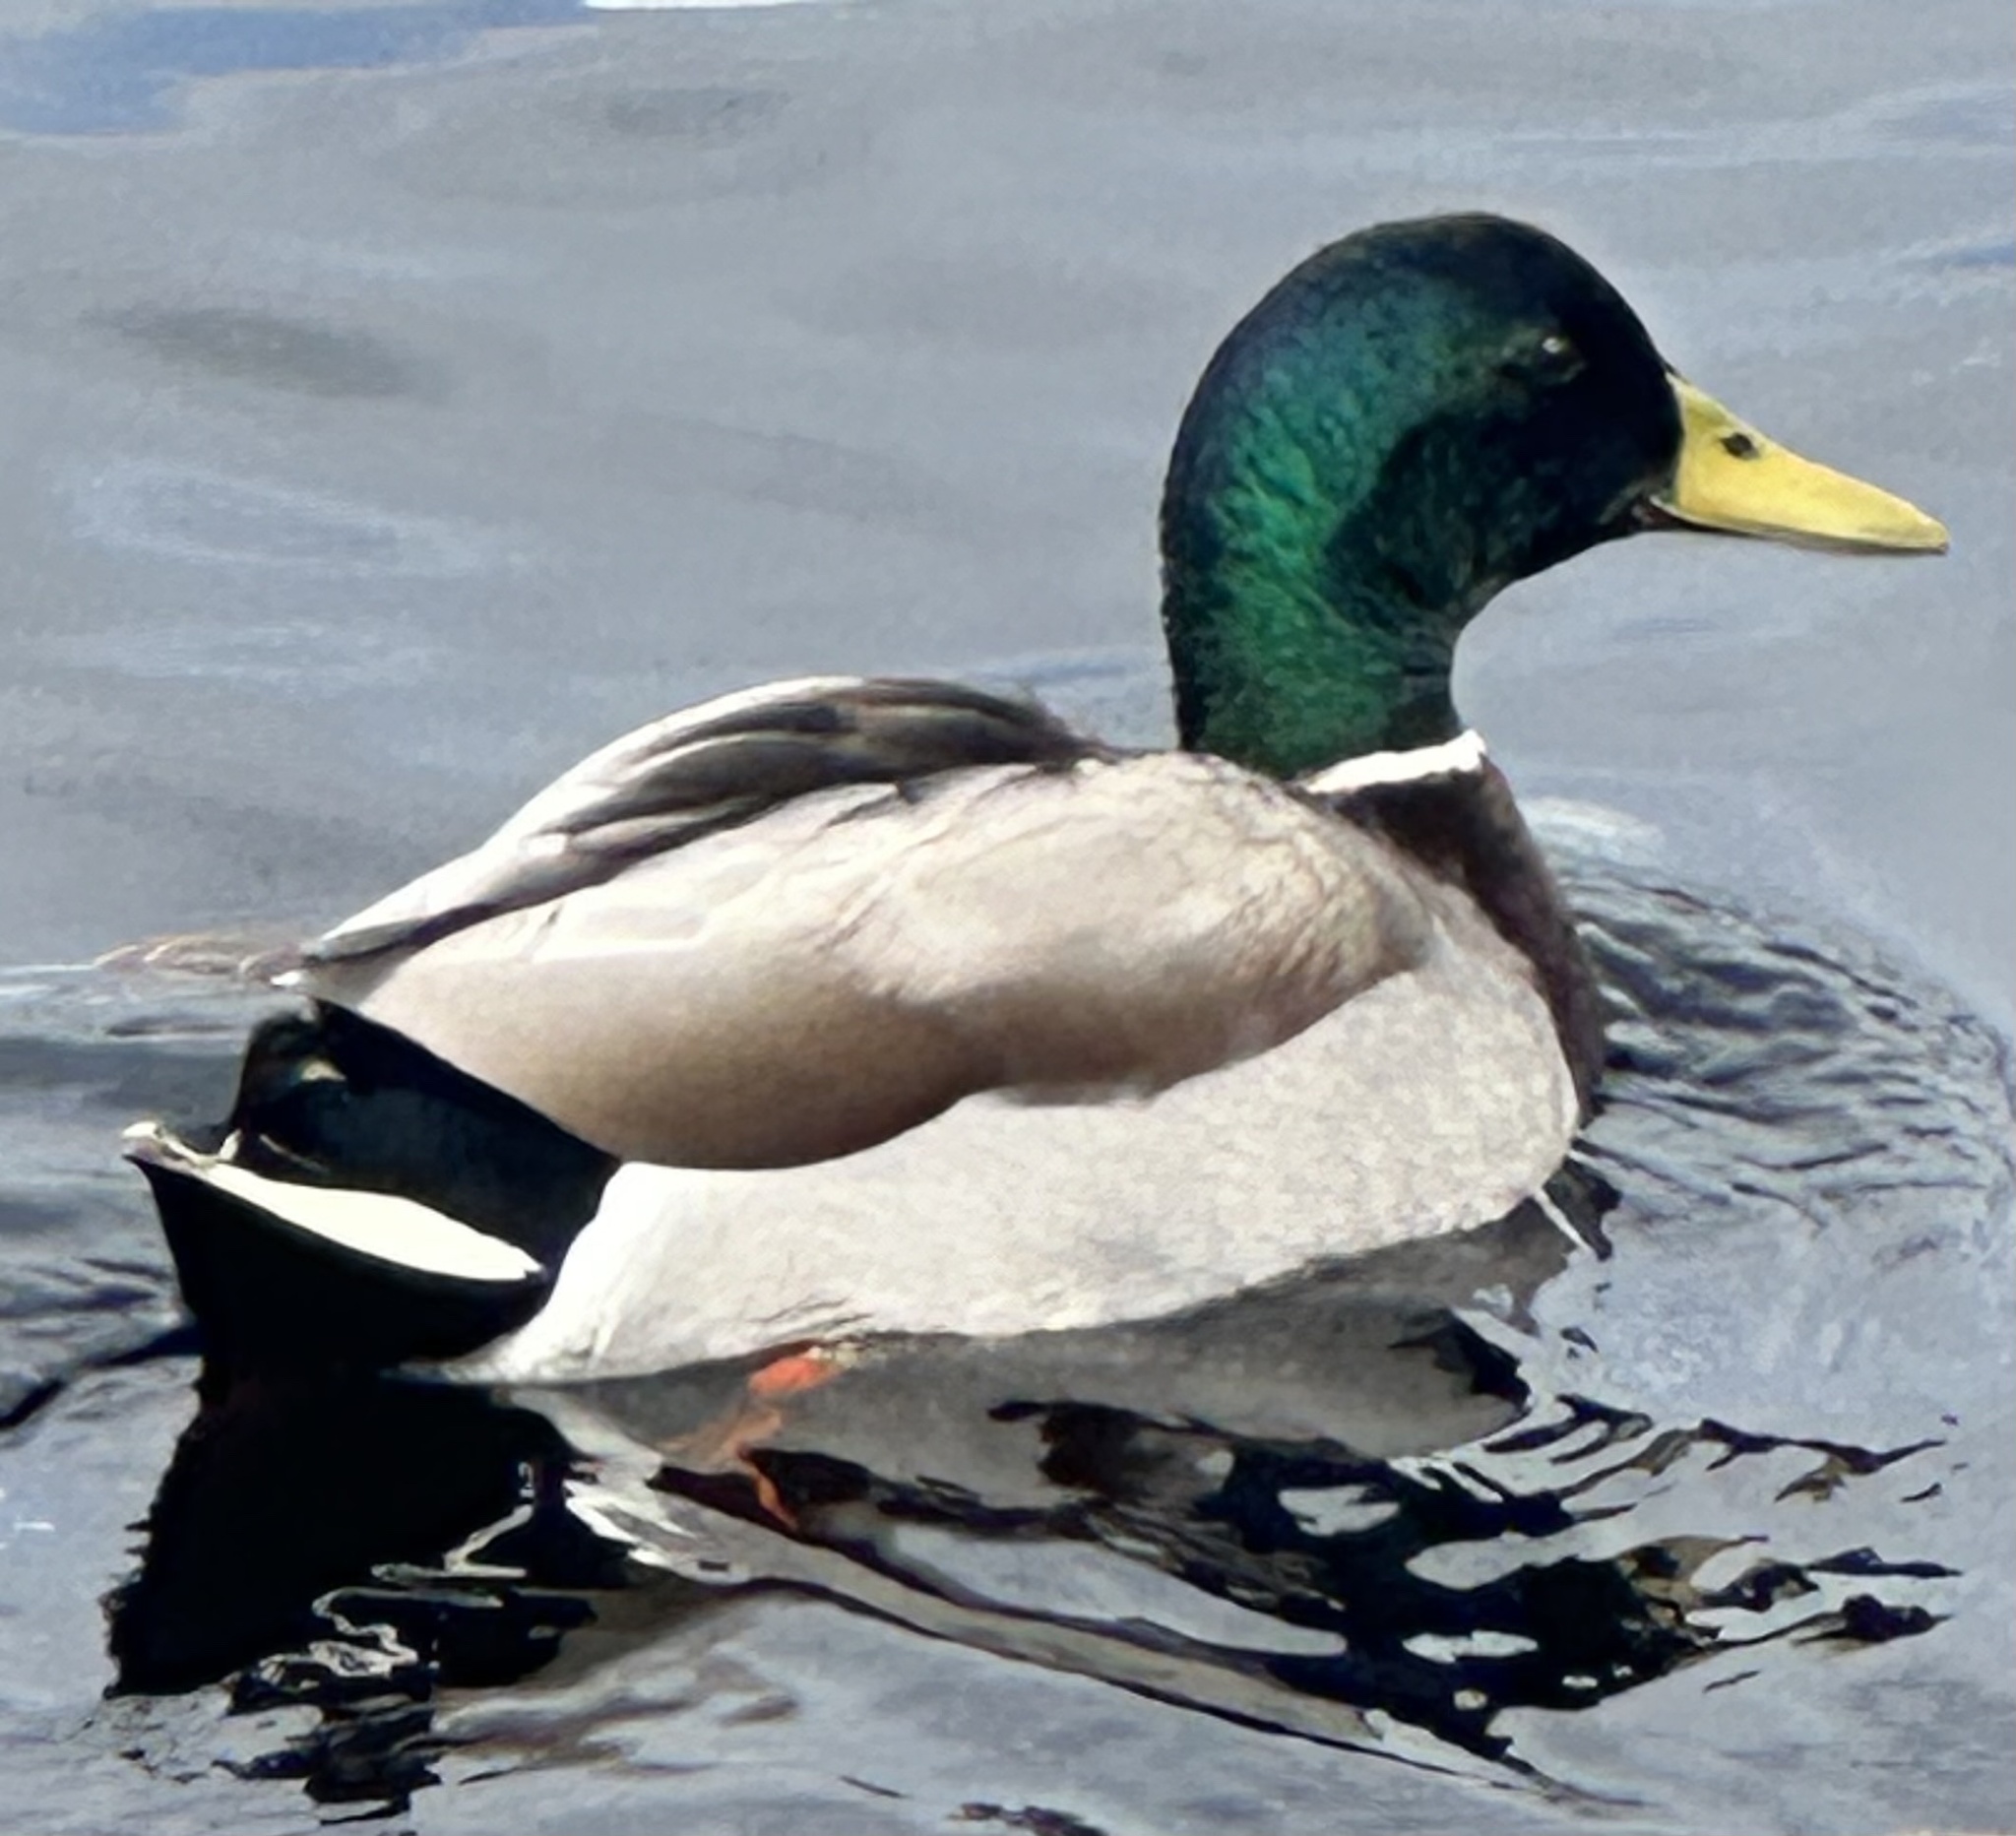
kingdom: Animalia
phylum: Chordata
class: Aves
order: Anseriformes
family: Anatidae
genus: Anas
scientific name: Anas platyrhynchos
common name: Mallard
